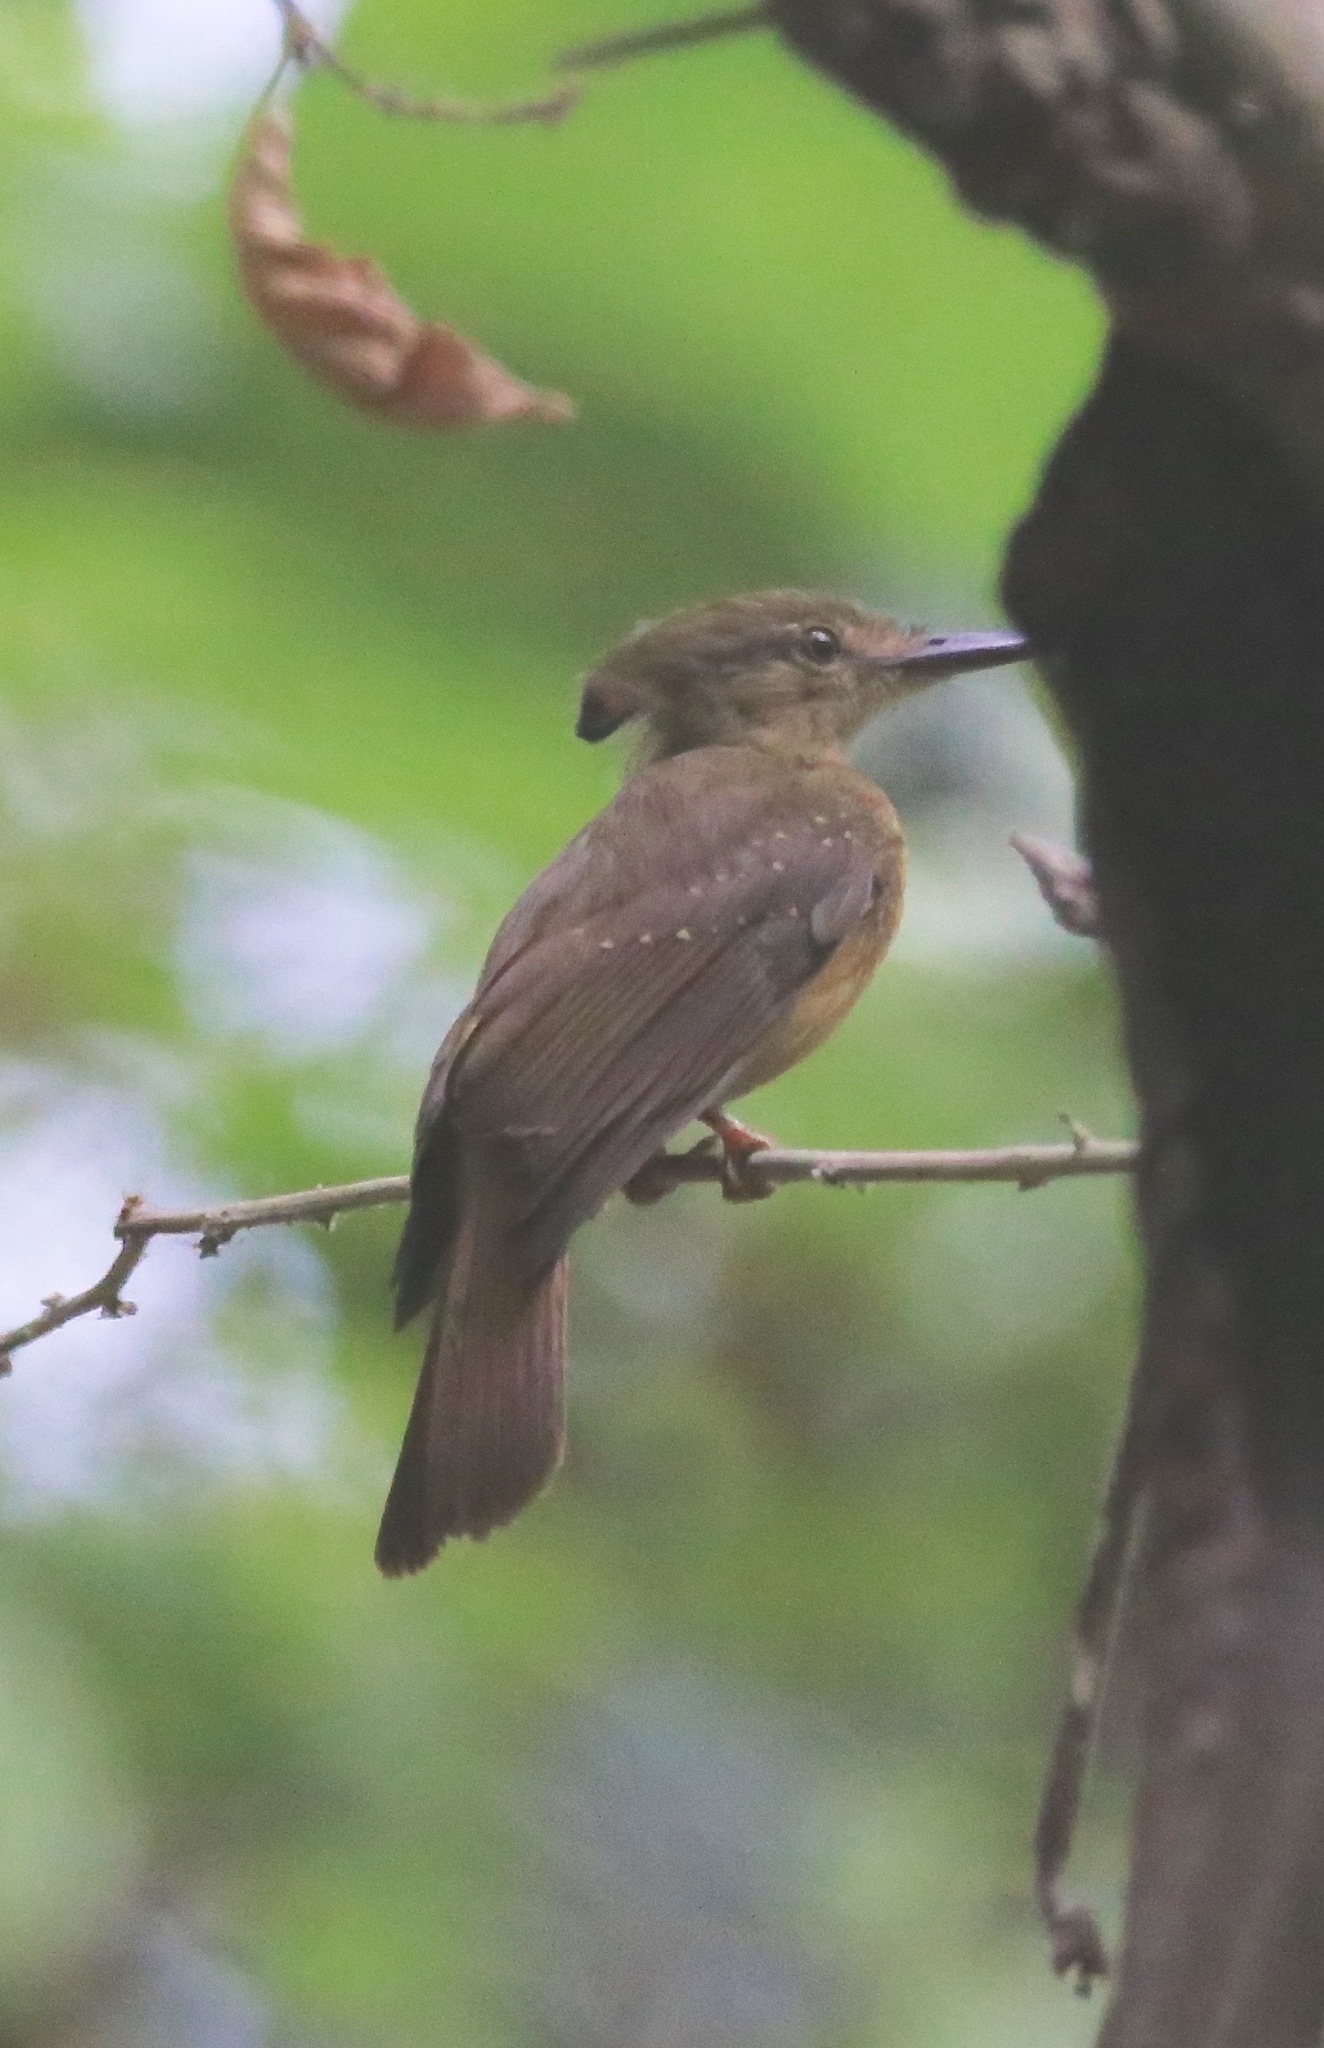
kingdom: Animalia
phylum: Chordata
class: Aves
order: Passeriformes
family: Tyrannidae
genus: Onychorhynchus
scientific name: Onychorhynchus coronatus
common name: Royal flycatcher
